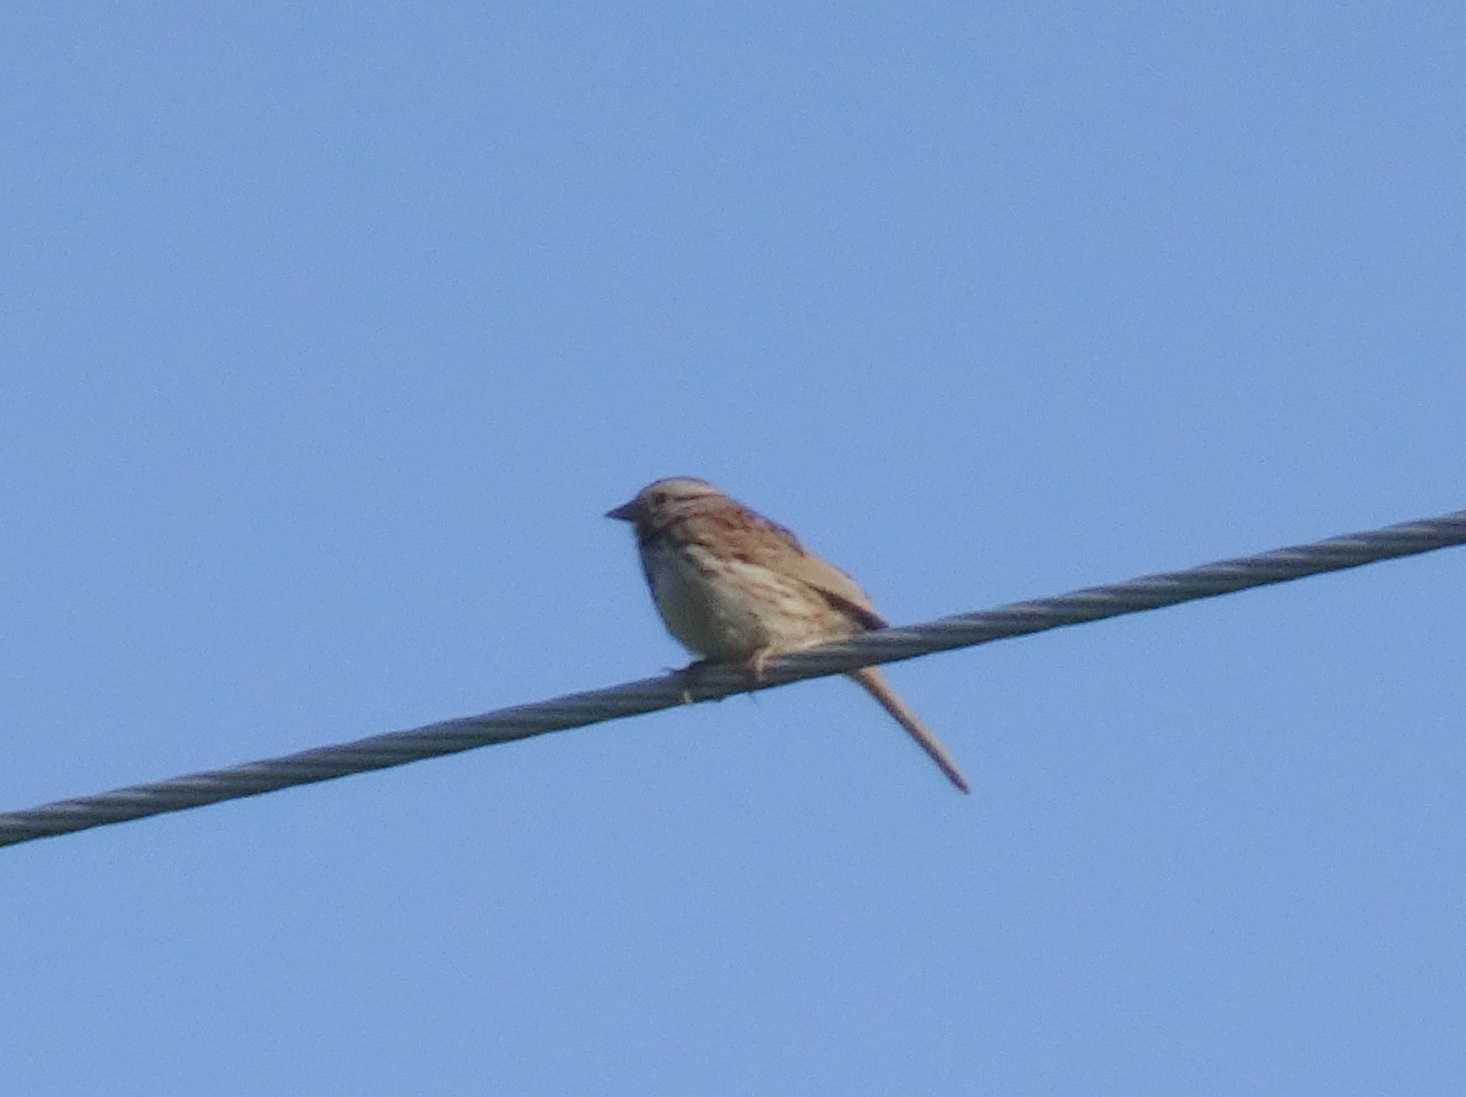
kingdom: Animalia
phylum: Chordata
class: Aves
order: Passeriformes
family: Passerellidae
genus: Melospiza
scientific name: Melospiza melodia
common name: Song sparrow
